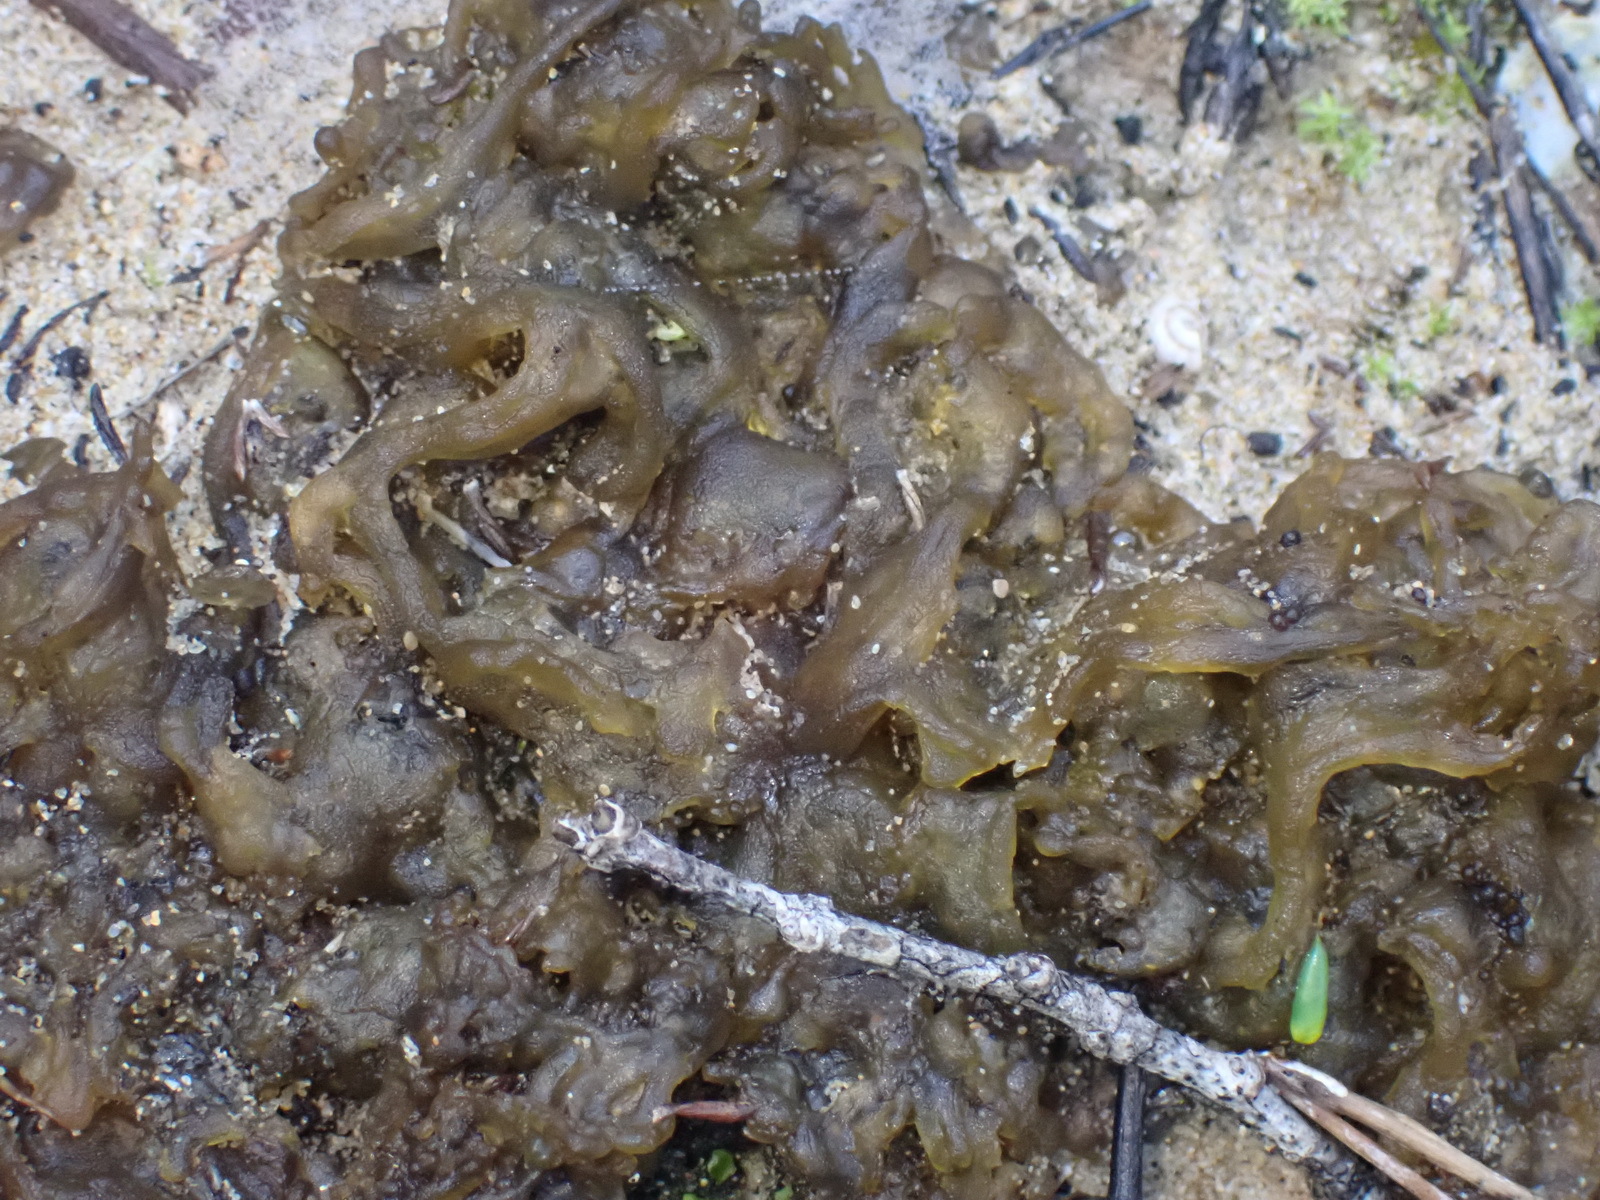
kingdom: Bacteria
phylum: Cyanobacteria
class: Cyanobacteriia
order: Cyanobacteriales
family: Nostocaceae
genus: Nostoc
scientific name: Nostoc commune
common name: Star jelly
